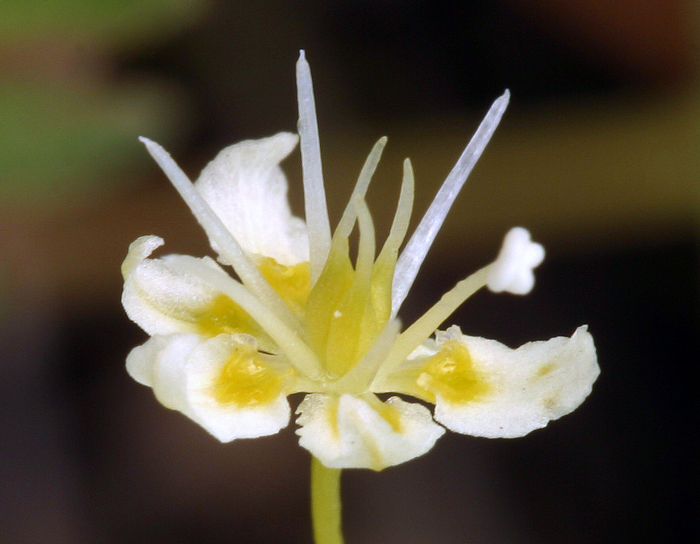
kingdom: Plantae
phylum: Tracheophyta
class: Liliopsida
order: Liliales
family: Melanthiaceae
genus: Toxicoscordion
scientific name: Toxicoscordion venenosum
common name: Meadow death camas
